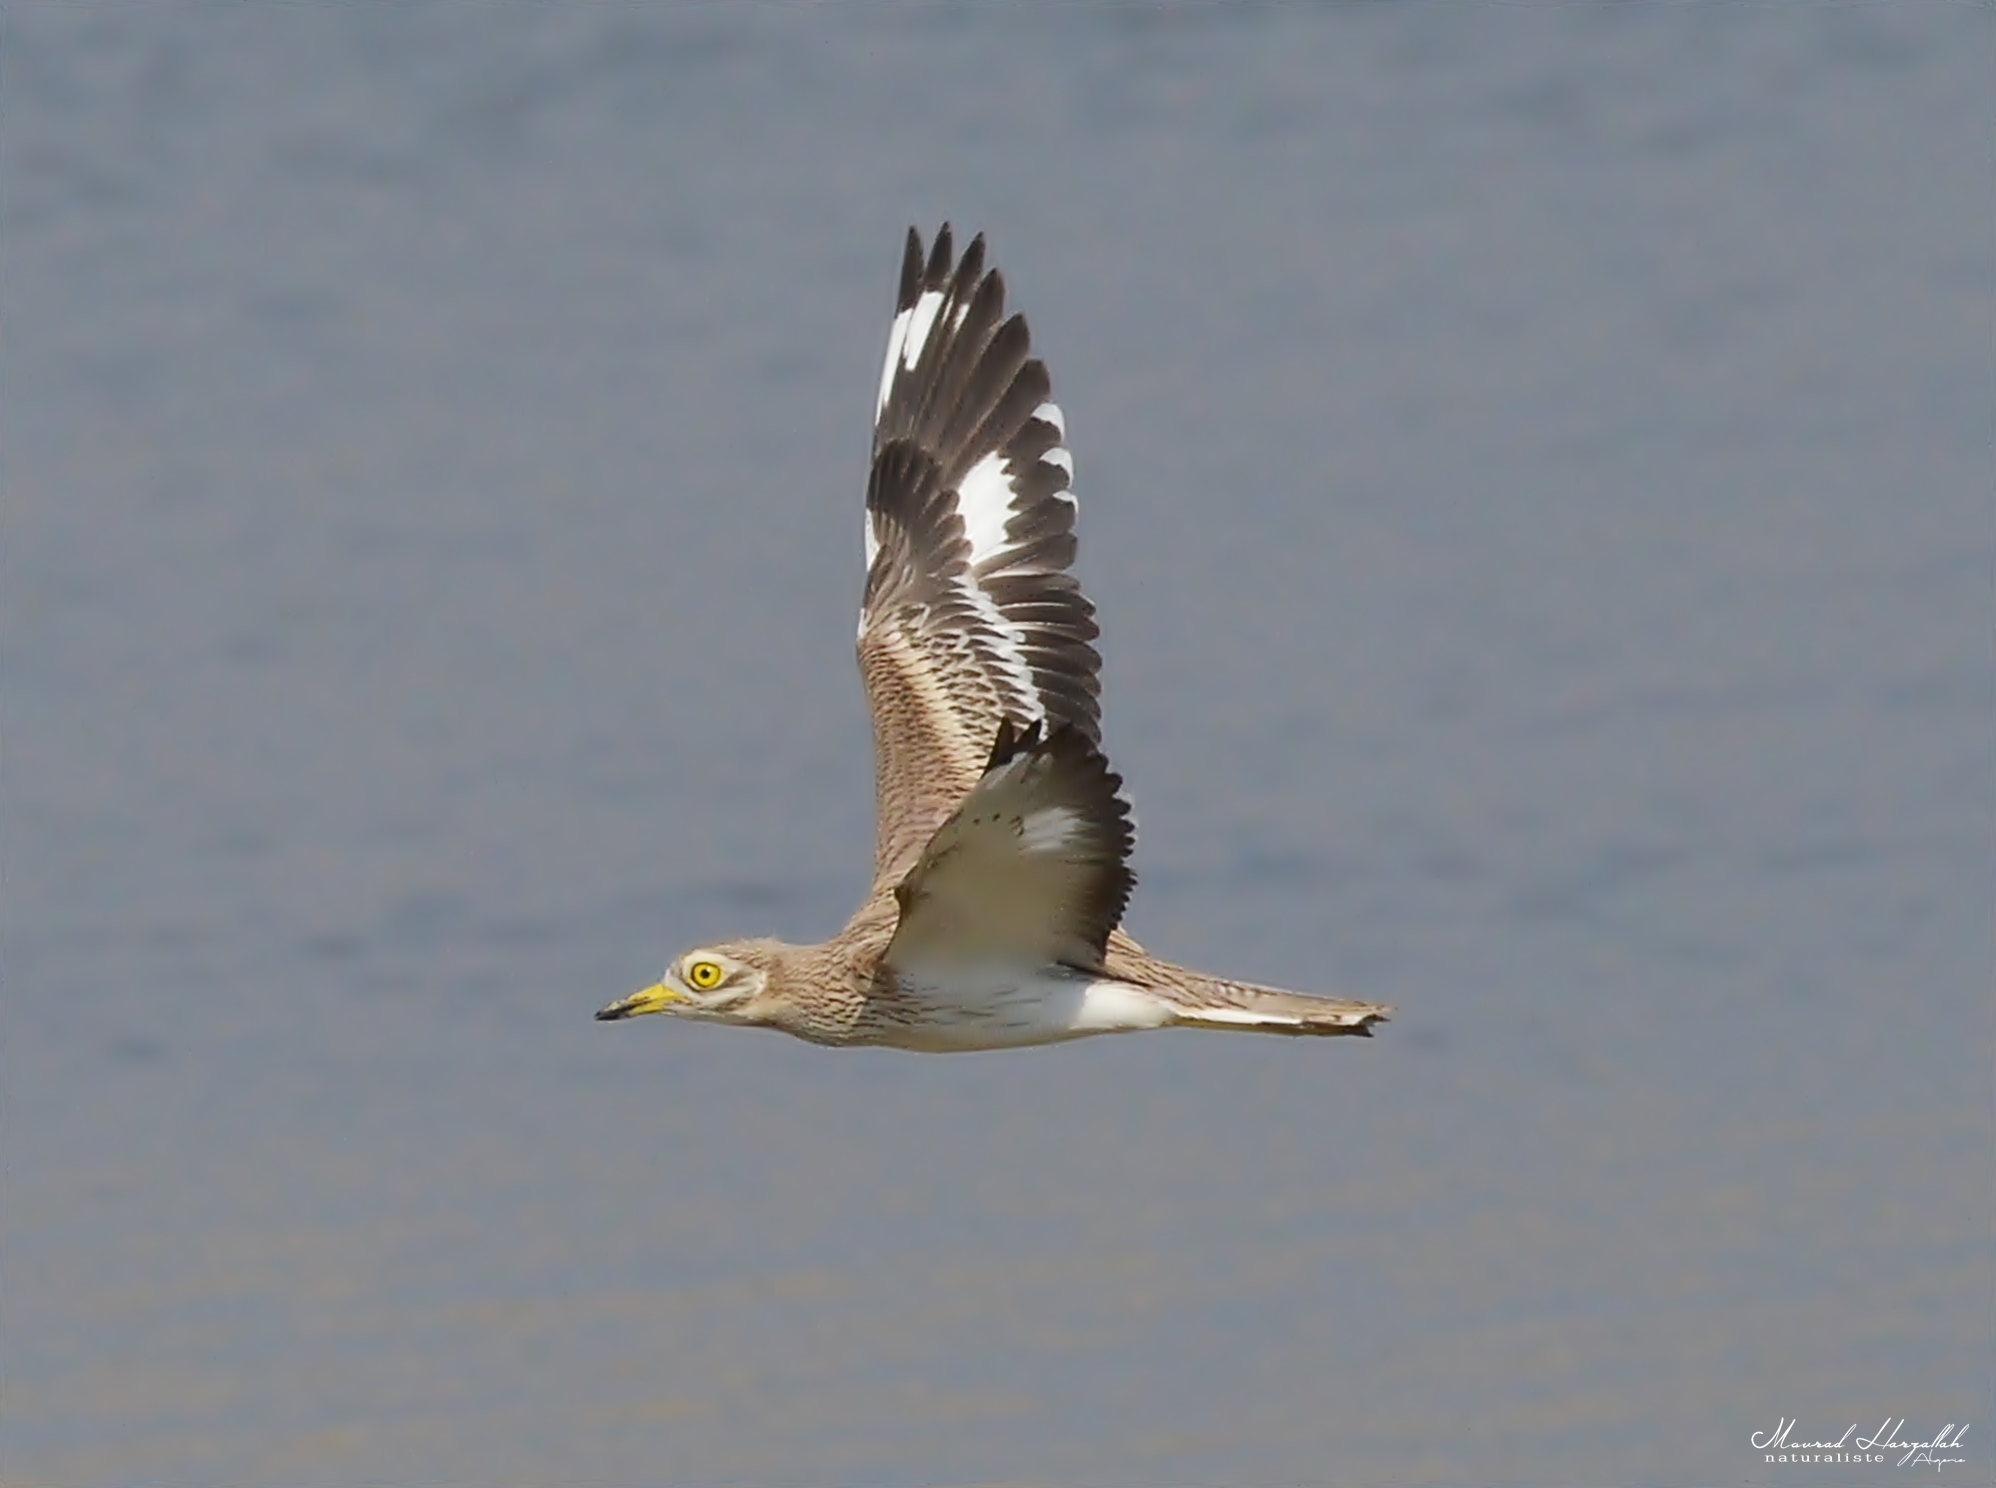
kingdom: Animalia
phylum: Chordata
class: Aves
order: Charadriiformes
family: Burhinidae
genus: Burhinus
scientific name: Burhinus oedicnemus
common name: Eurasian stone-curlew
